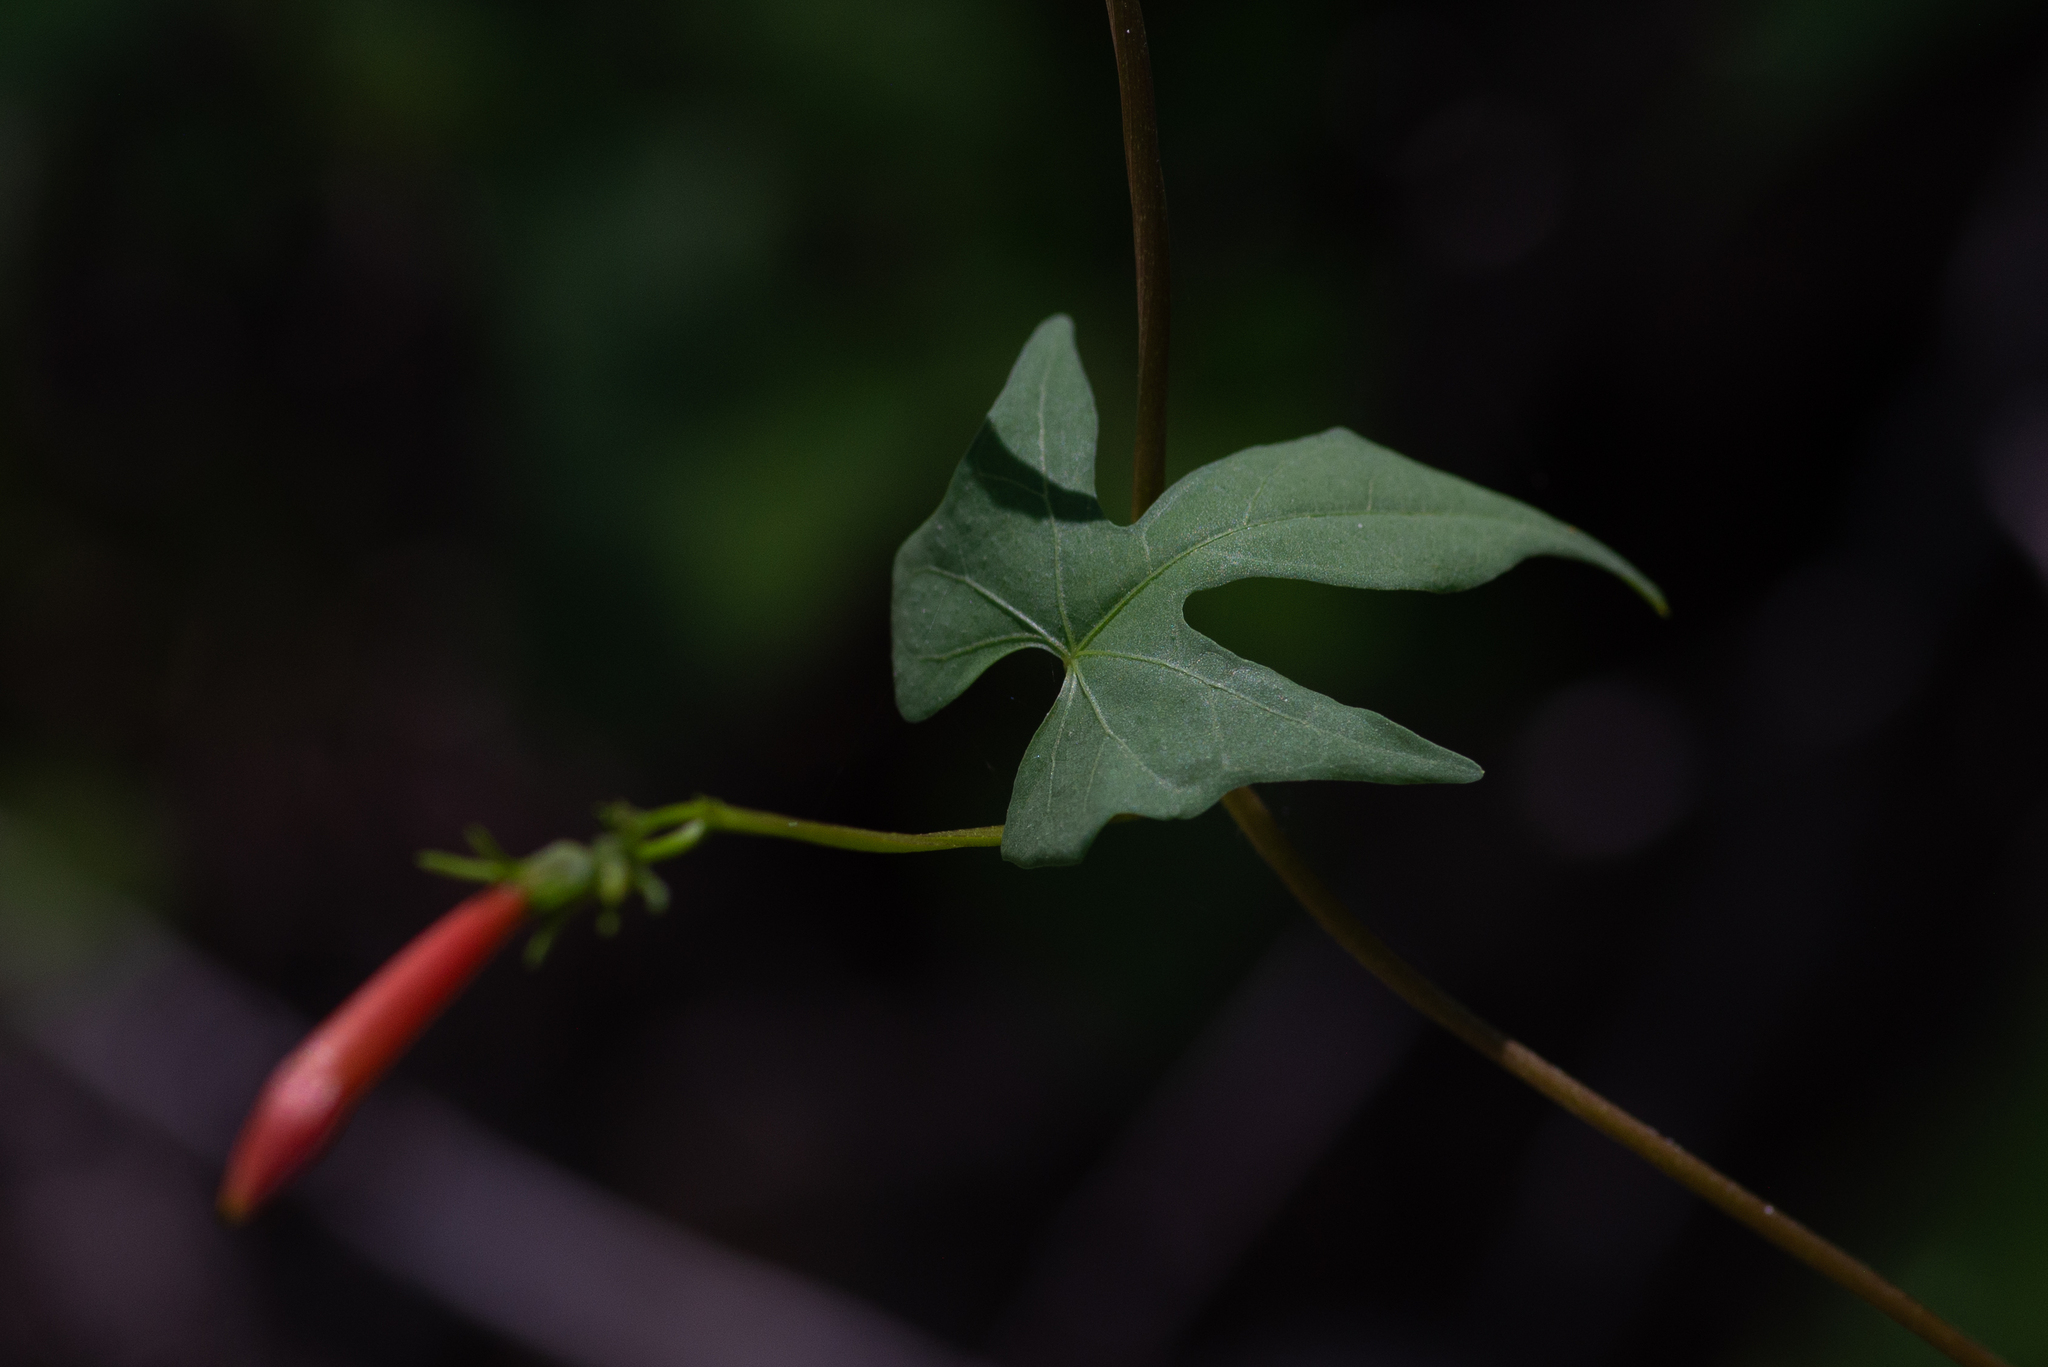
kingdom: Plantae
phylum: Tracheophyta
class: Magnoliopsida
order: Solanales
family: Convolvulaceae
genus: Ipomoea
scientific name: Ipomoea cristulata
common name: Trans-pecos morning-glory
